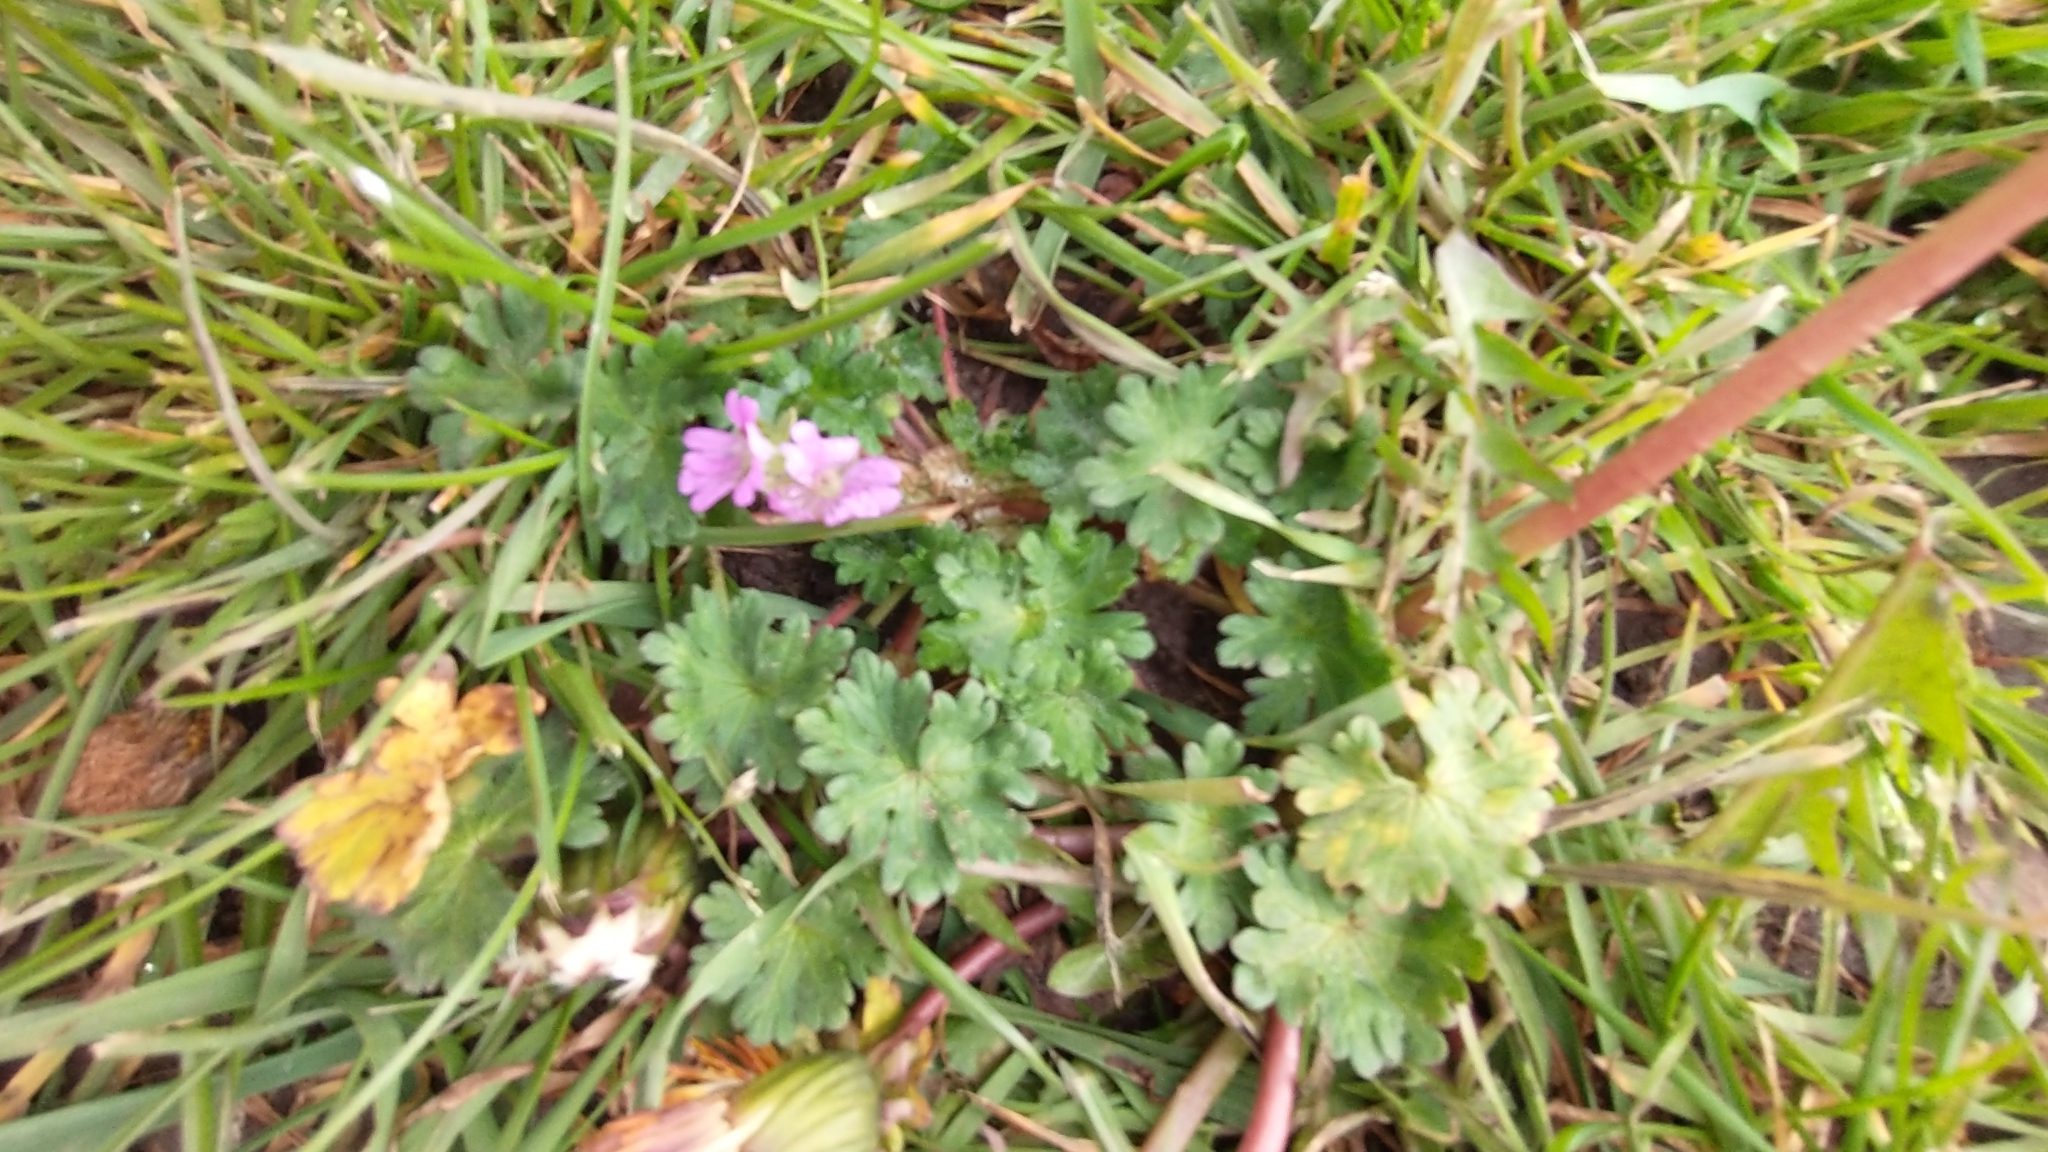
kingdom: Plantae
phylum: Tracheophyta
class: Magnoliopsida
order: Geraniales
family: Geraniaceae
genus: Geranium
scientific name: Geranium molle
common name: Dove's-foot crane's-bill
